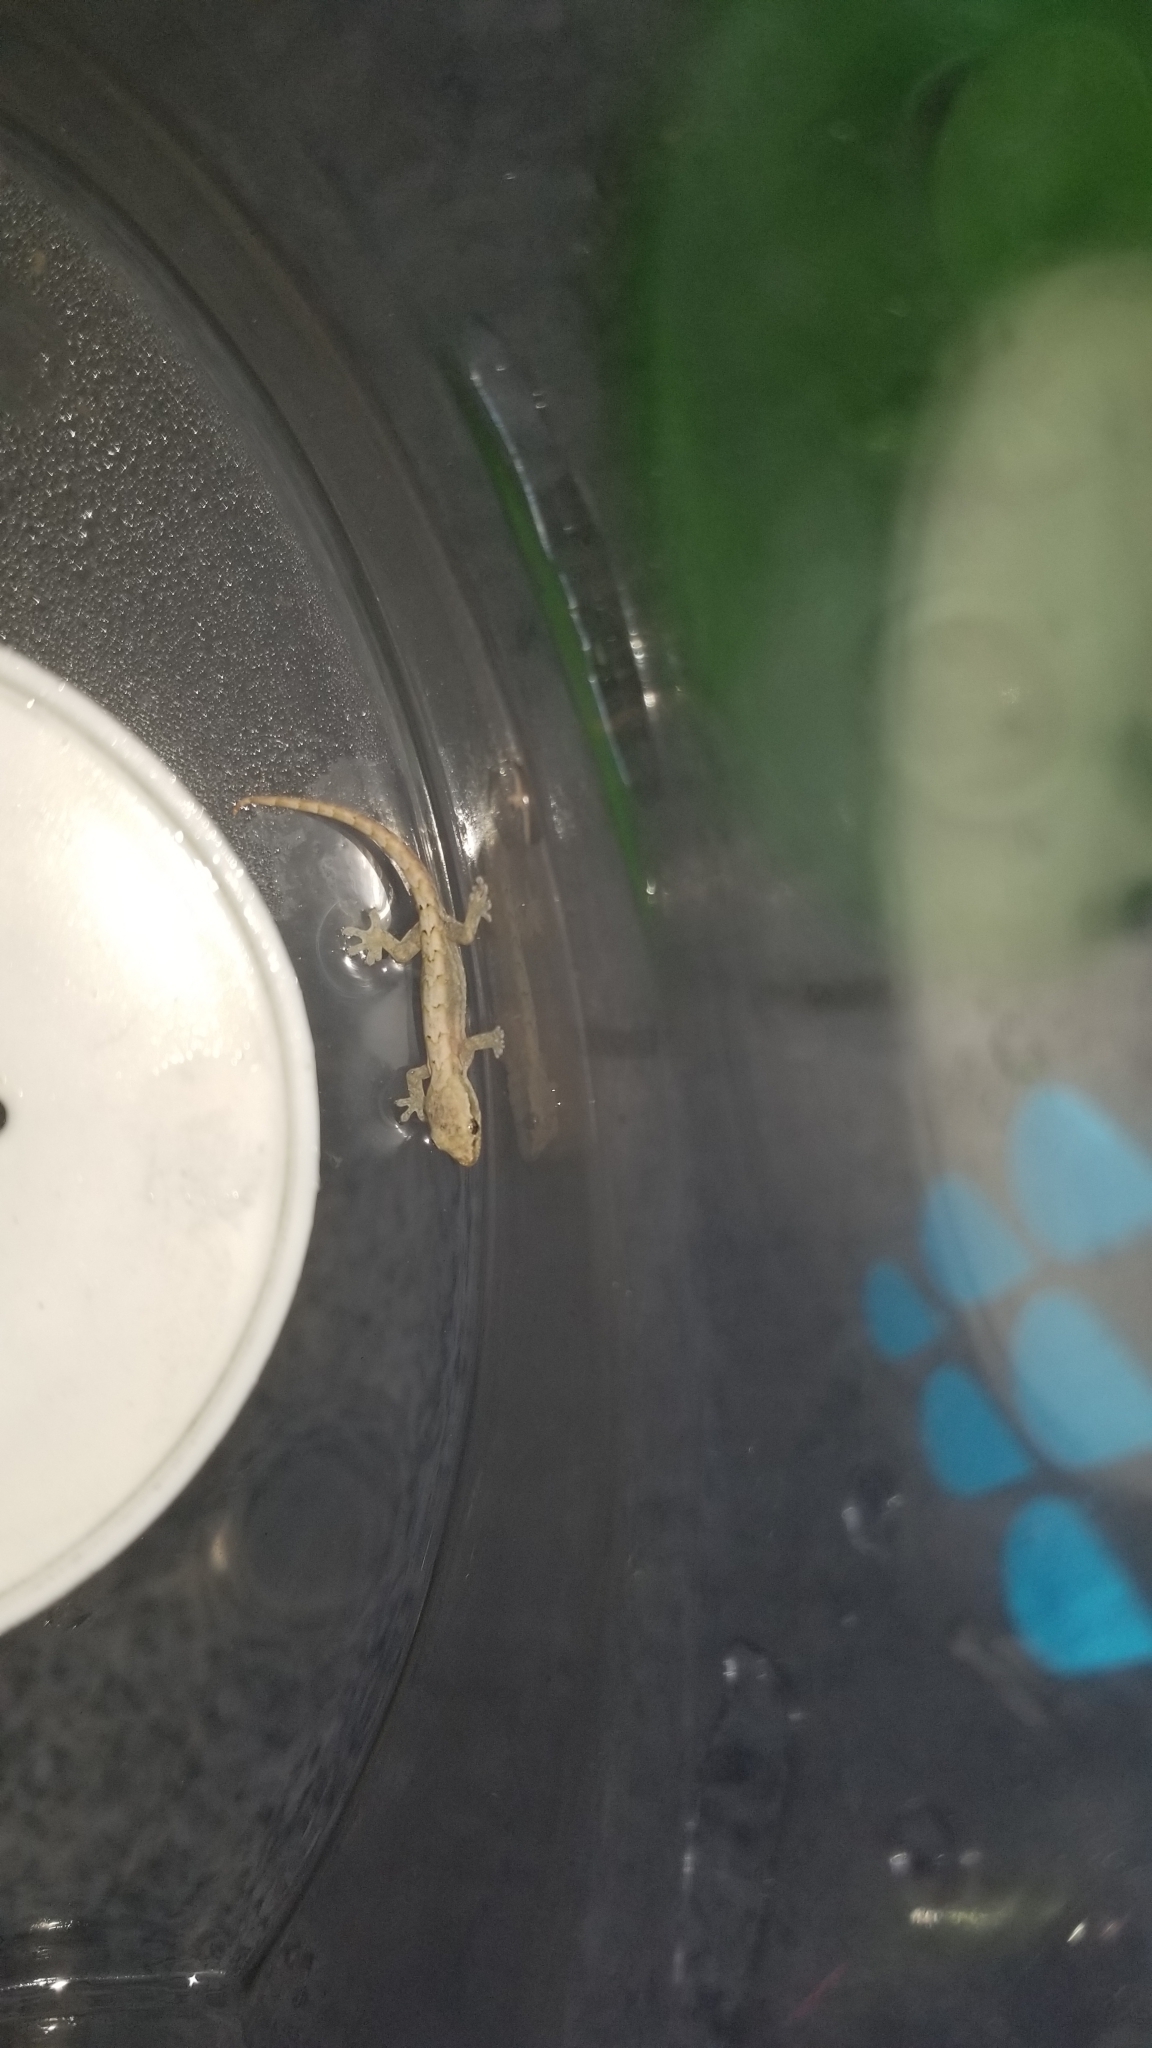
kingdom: Animalia
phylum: Chordata
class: Squamata
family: Gekkonidae
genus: Lepidodactylus
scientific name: Lepidodactylus lugubris
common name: Mourning gecko
